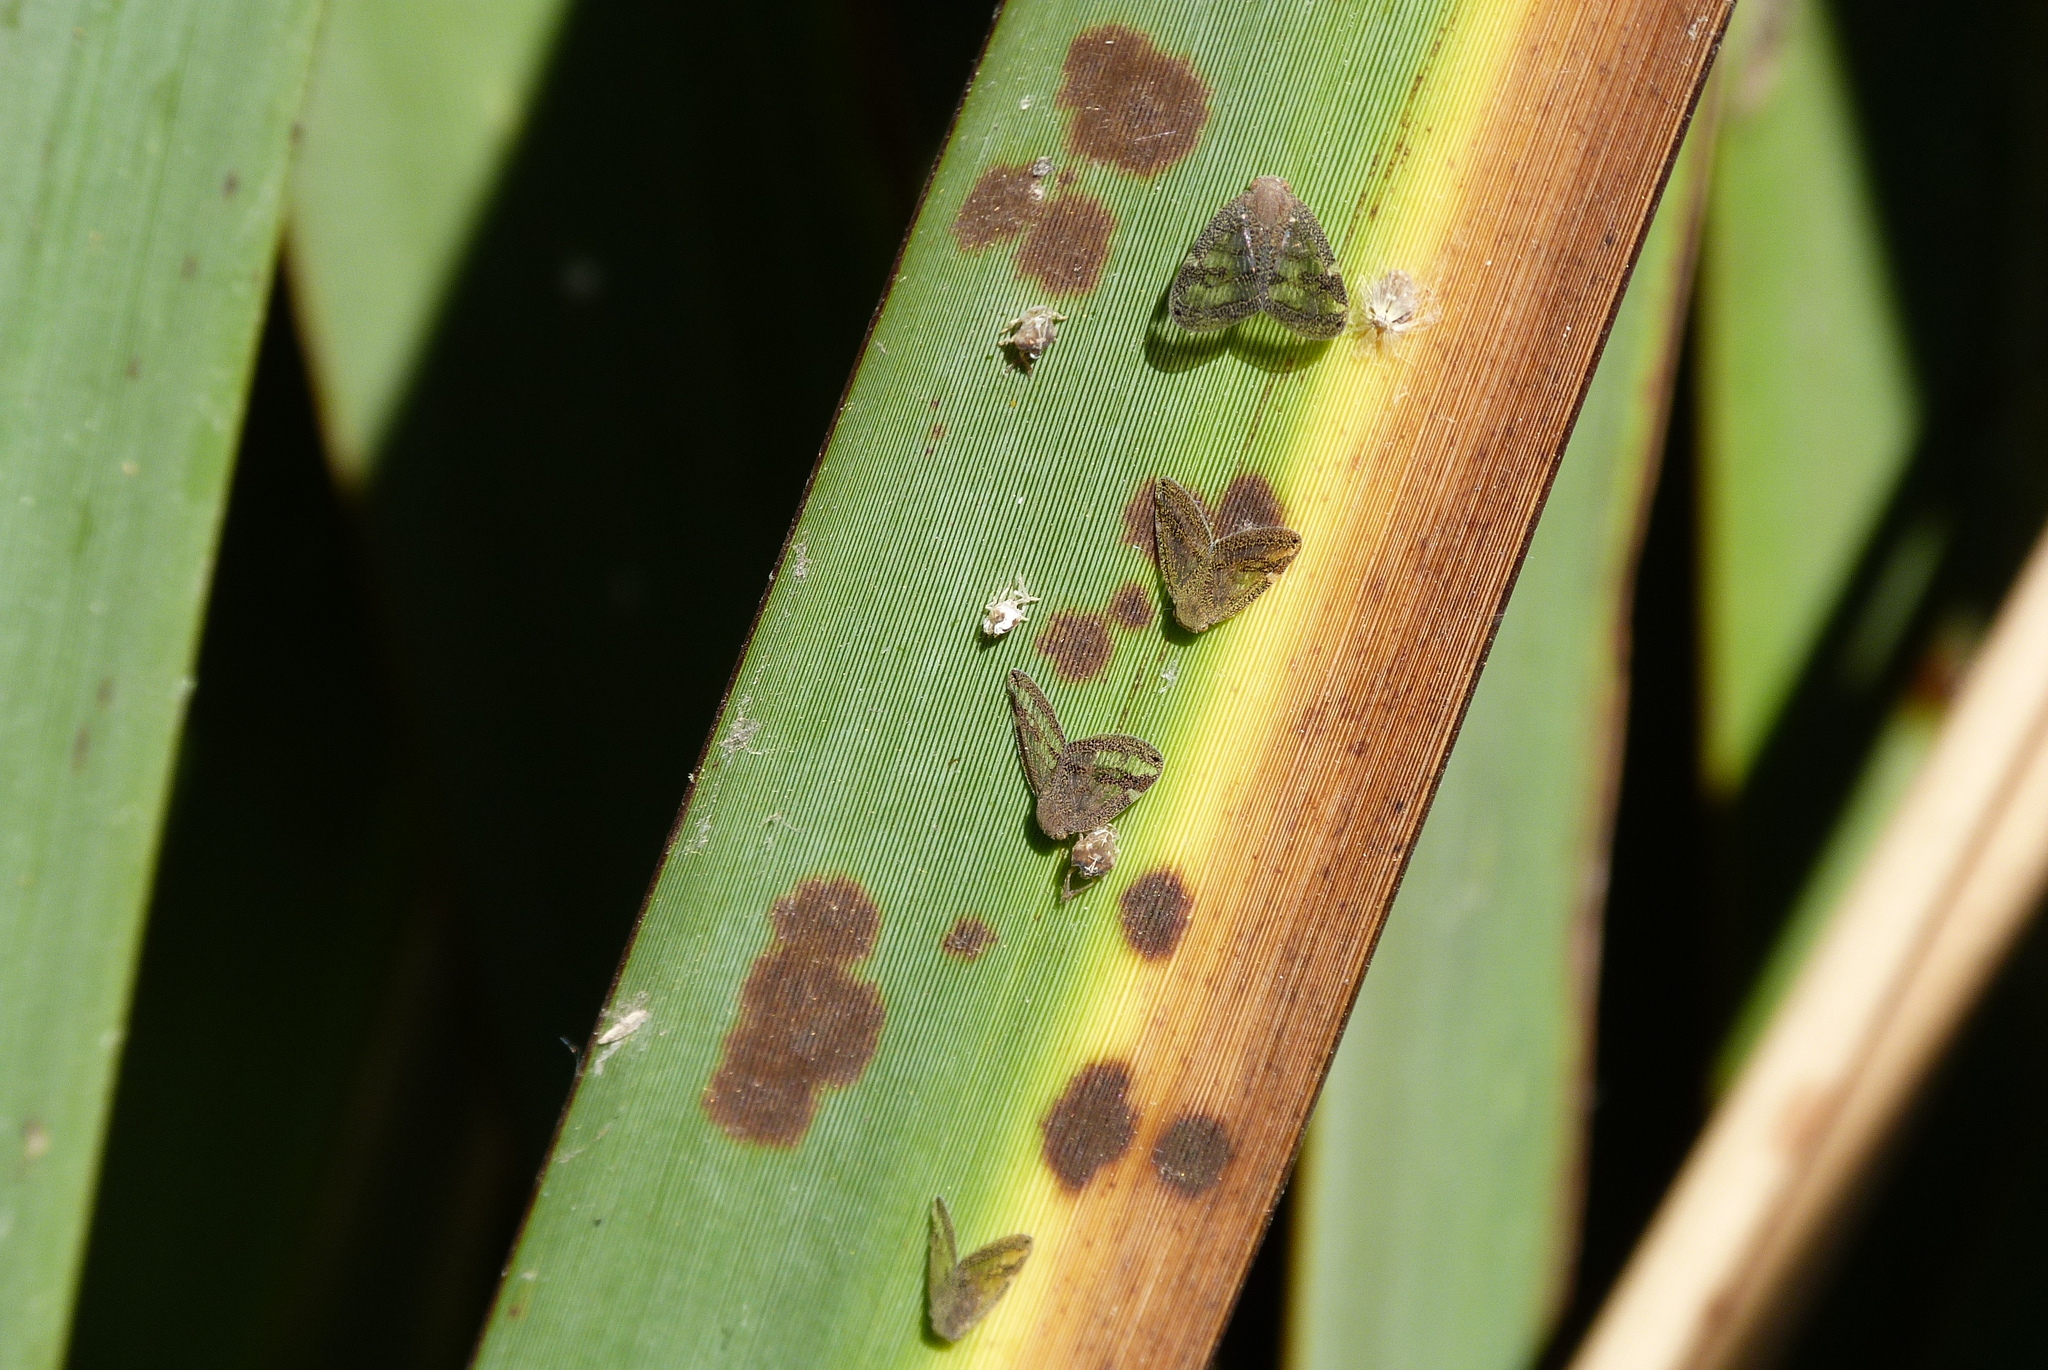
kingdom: Animalia
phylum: Arthropoda
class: Insecta
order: Hemiptera
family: Ricaniidae
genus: Scolypopa
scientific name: Scolypopa australis
